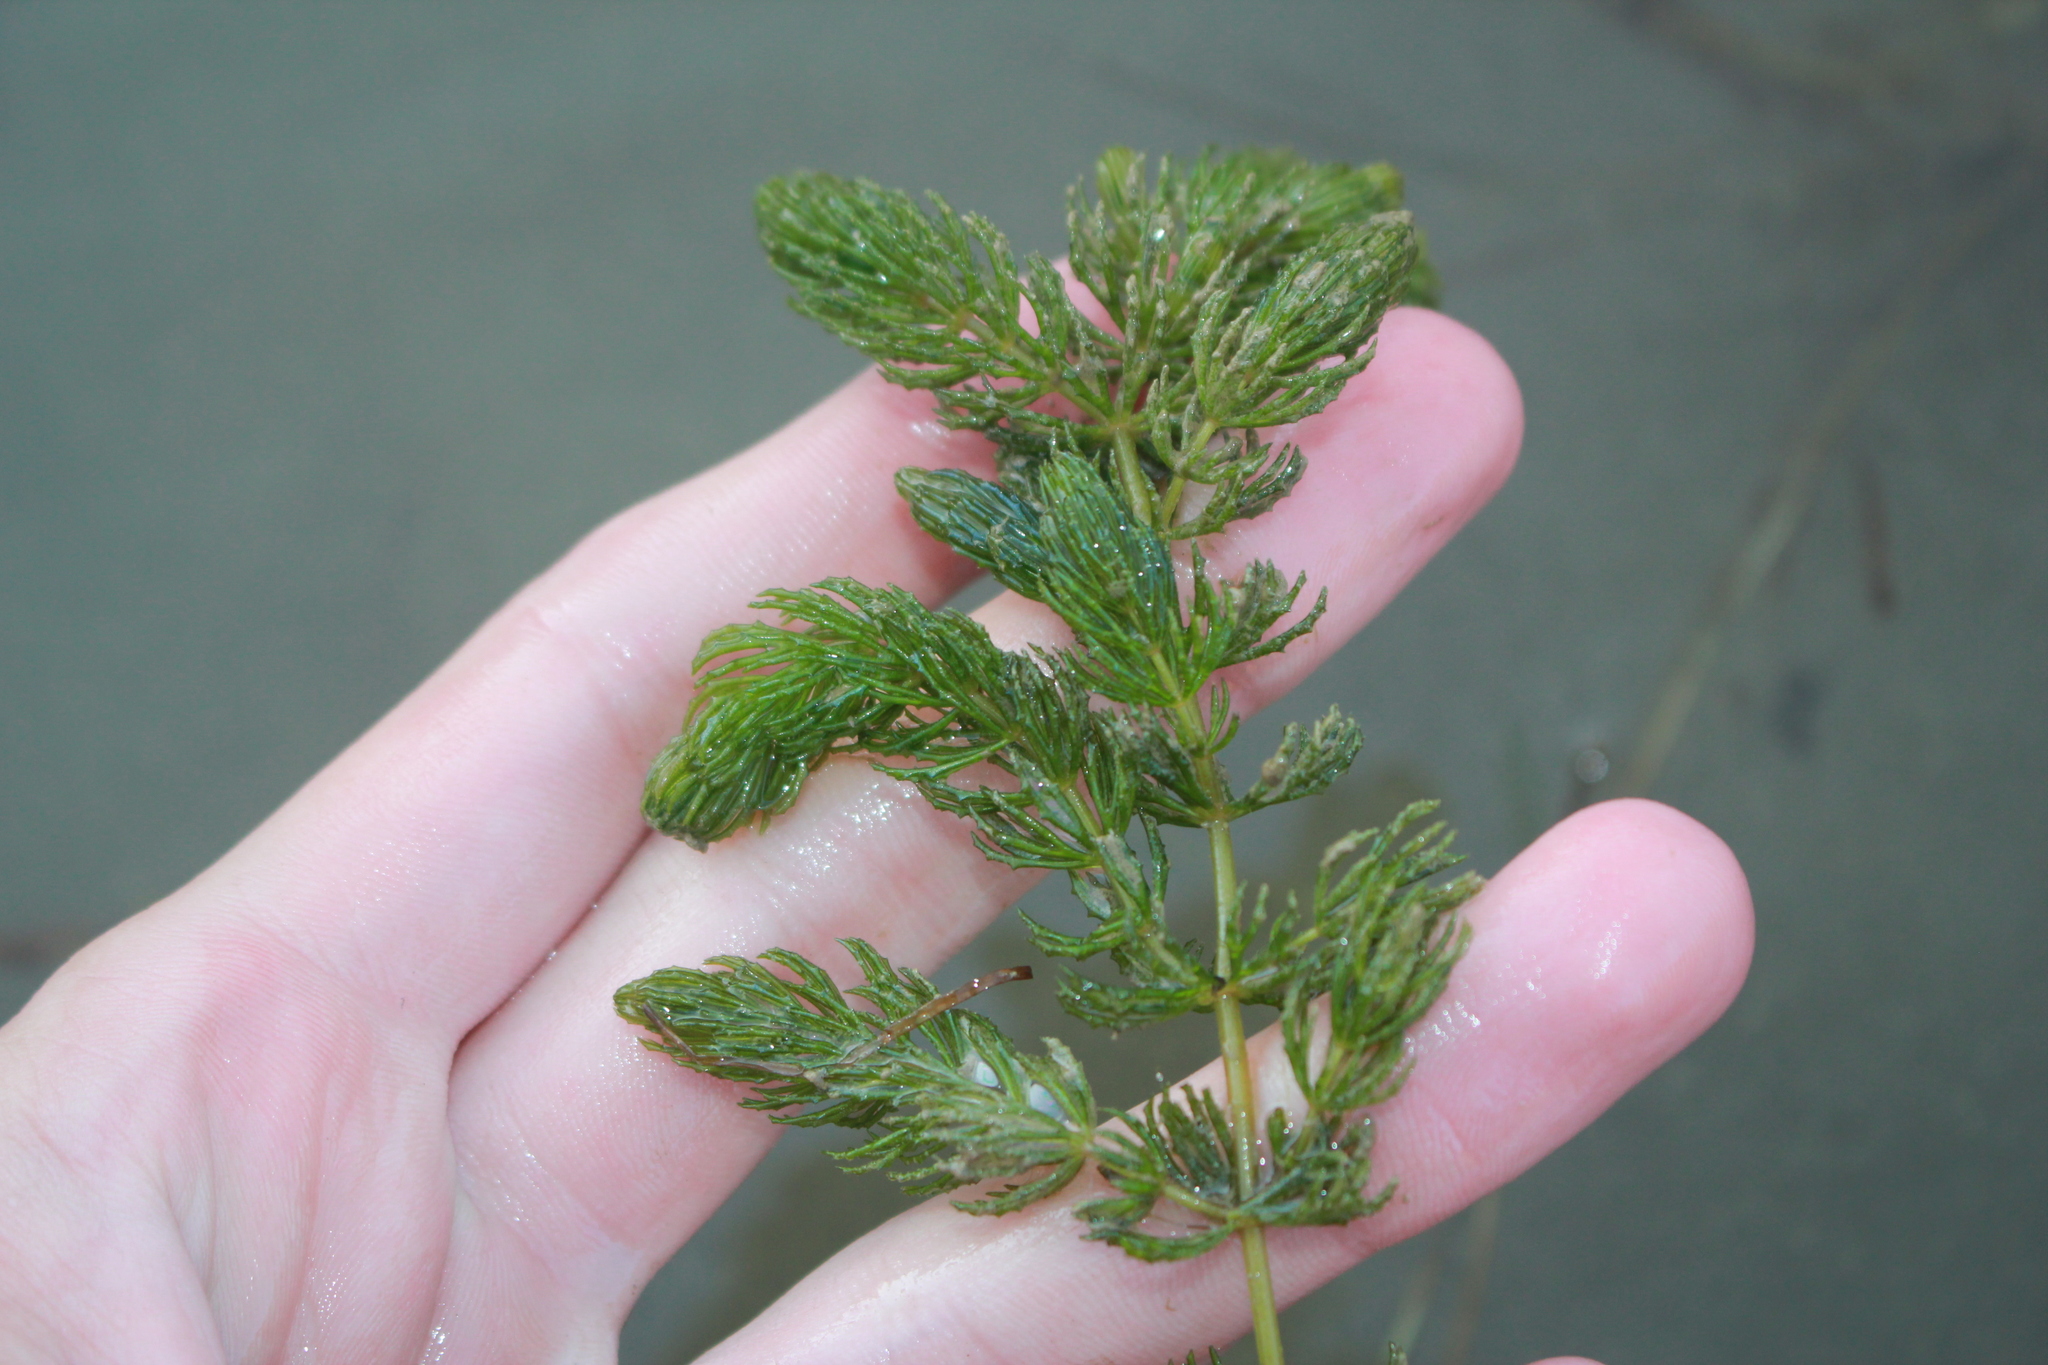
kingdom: Plantae
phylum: Tracheophyta
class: Magnoliopsida
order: Ceratophyllales
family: Ceratophyllaceae
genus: Ceratophyllum
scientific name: Ceratophyllum demersum
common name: Rigid hornwort
